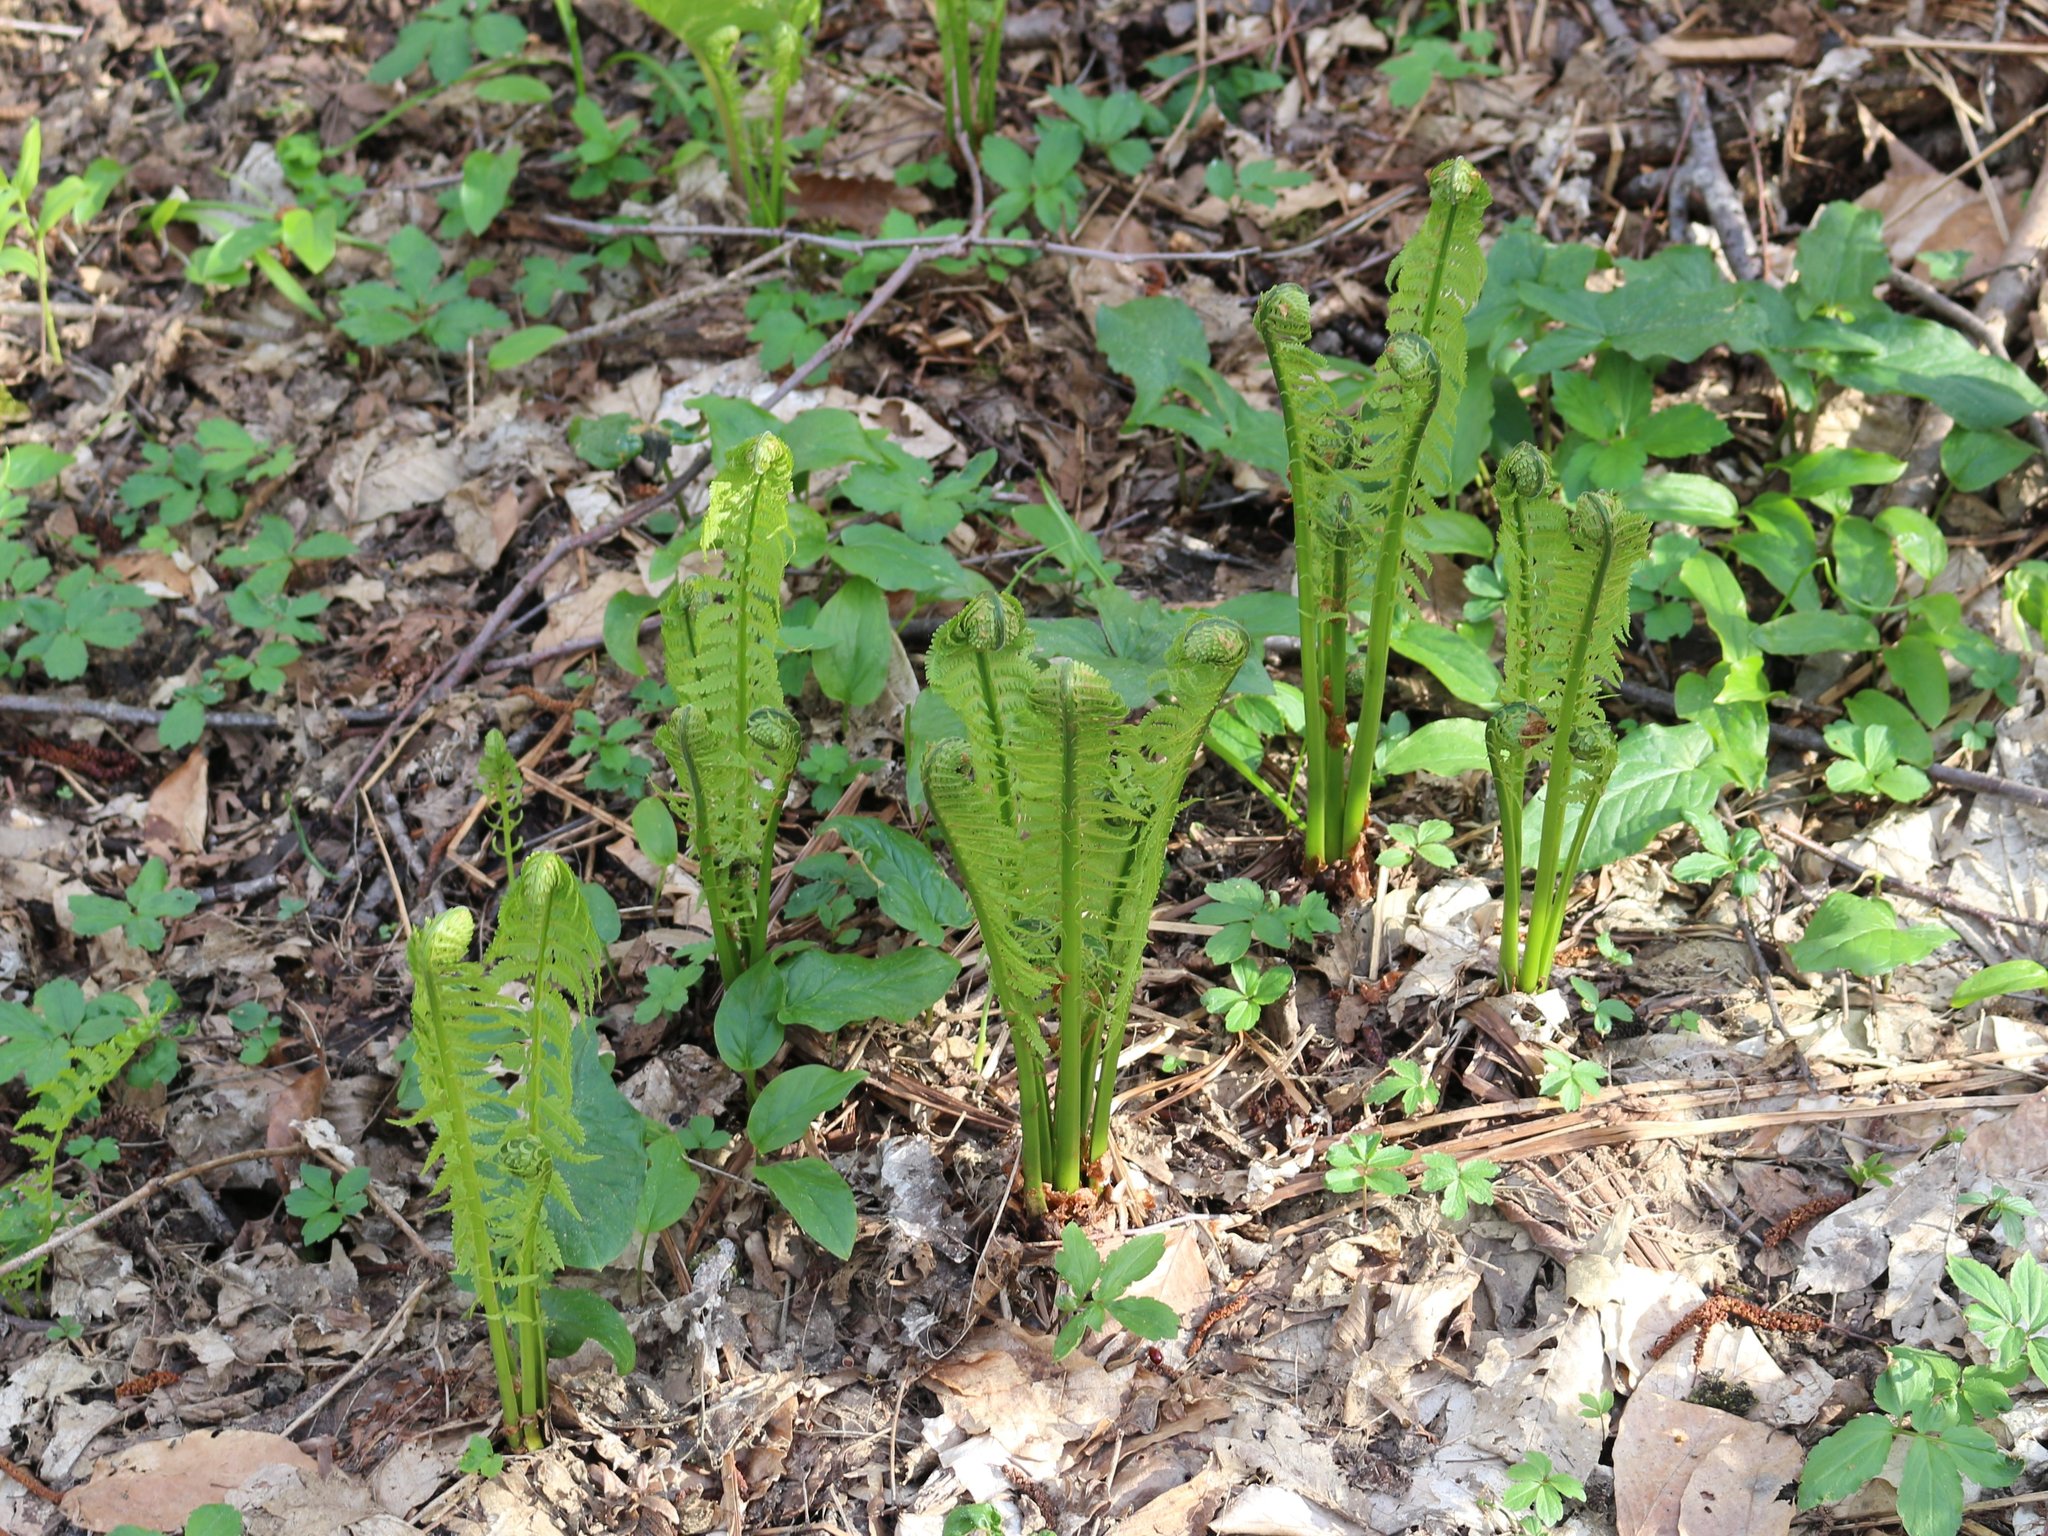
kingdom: Plantae
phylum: Tracheophyta
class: Polypodiopsida
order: Polypodiales
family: Onocleaceae
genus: Matteuccia
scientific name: Matteuccia struthiopteris
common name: Ostrich fern
